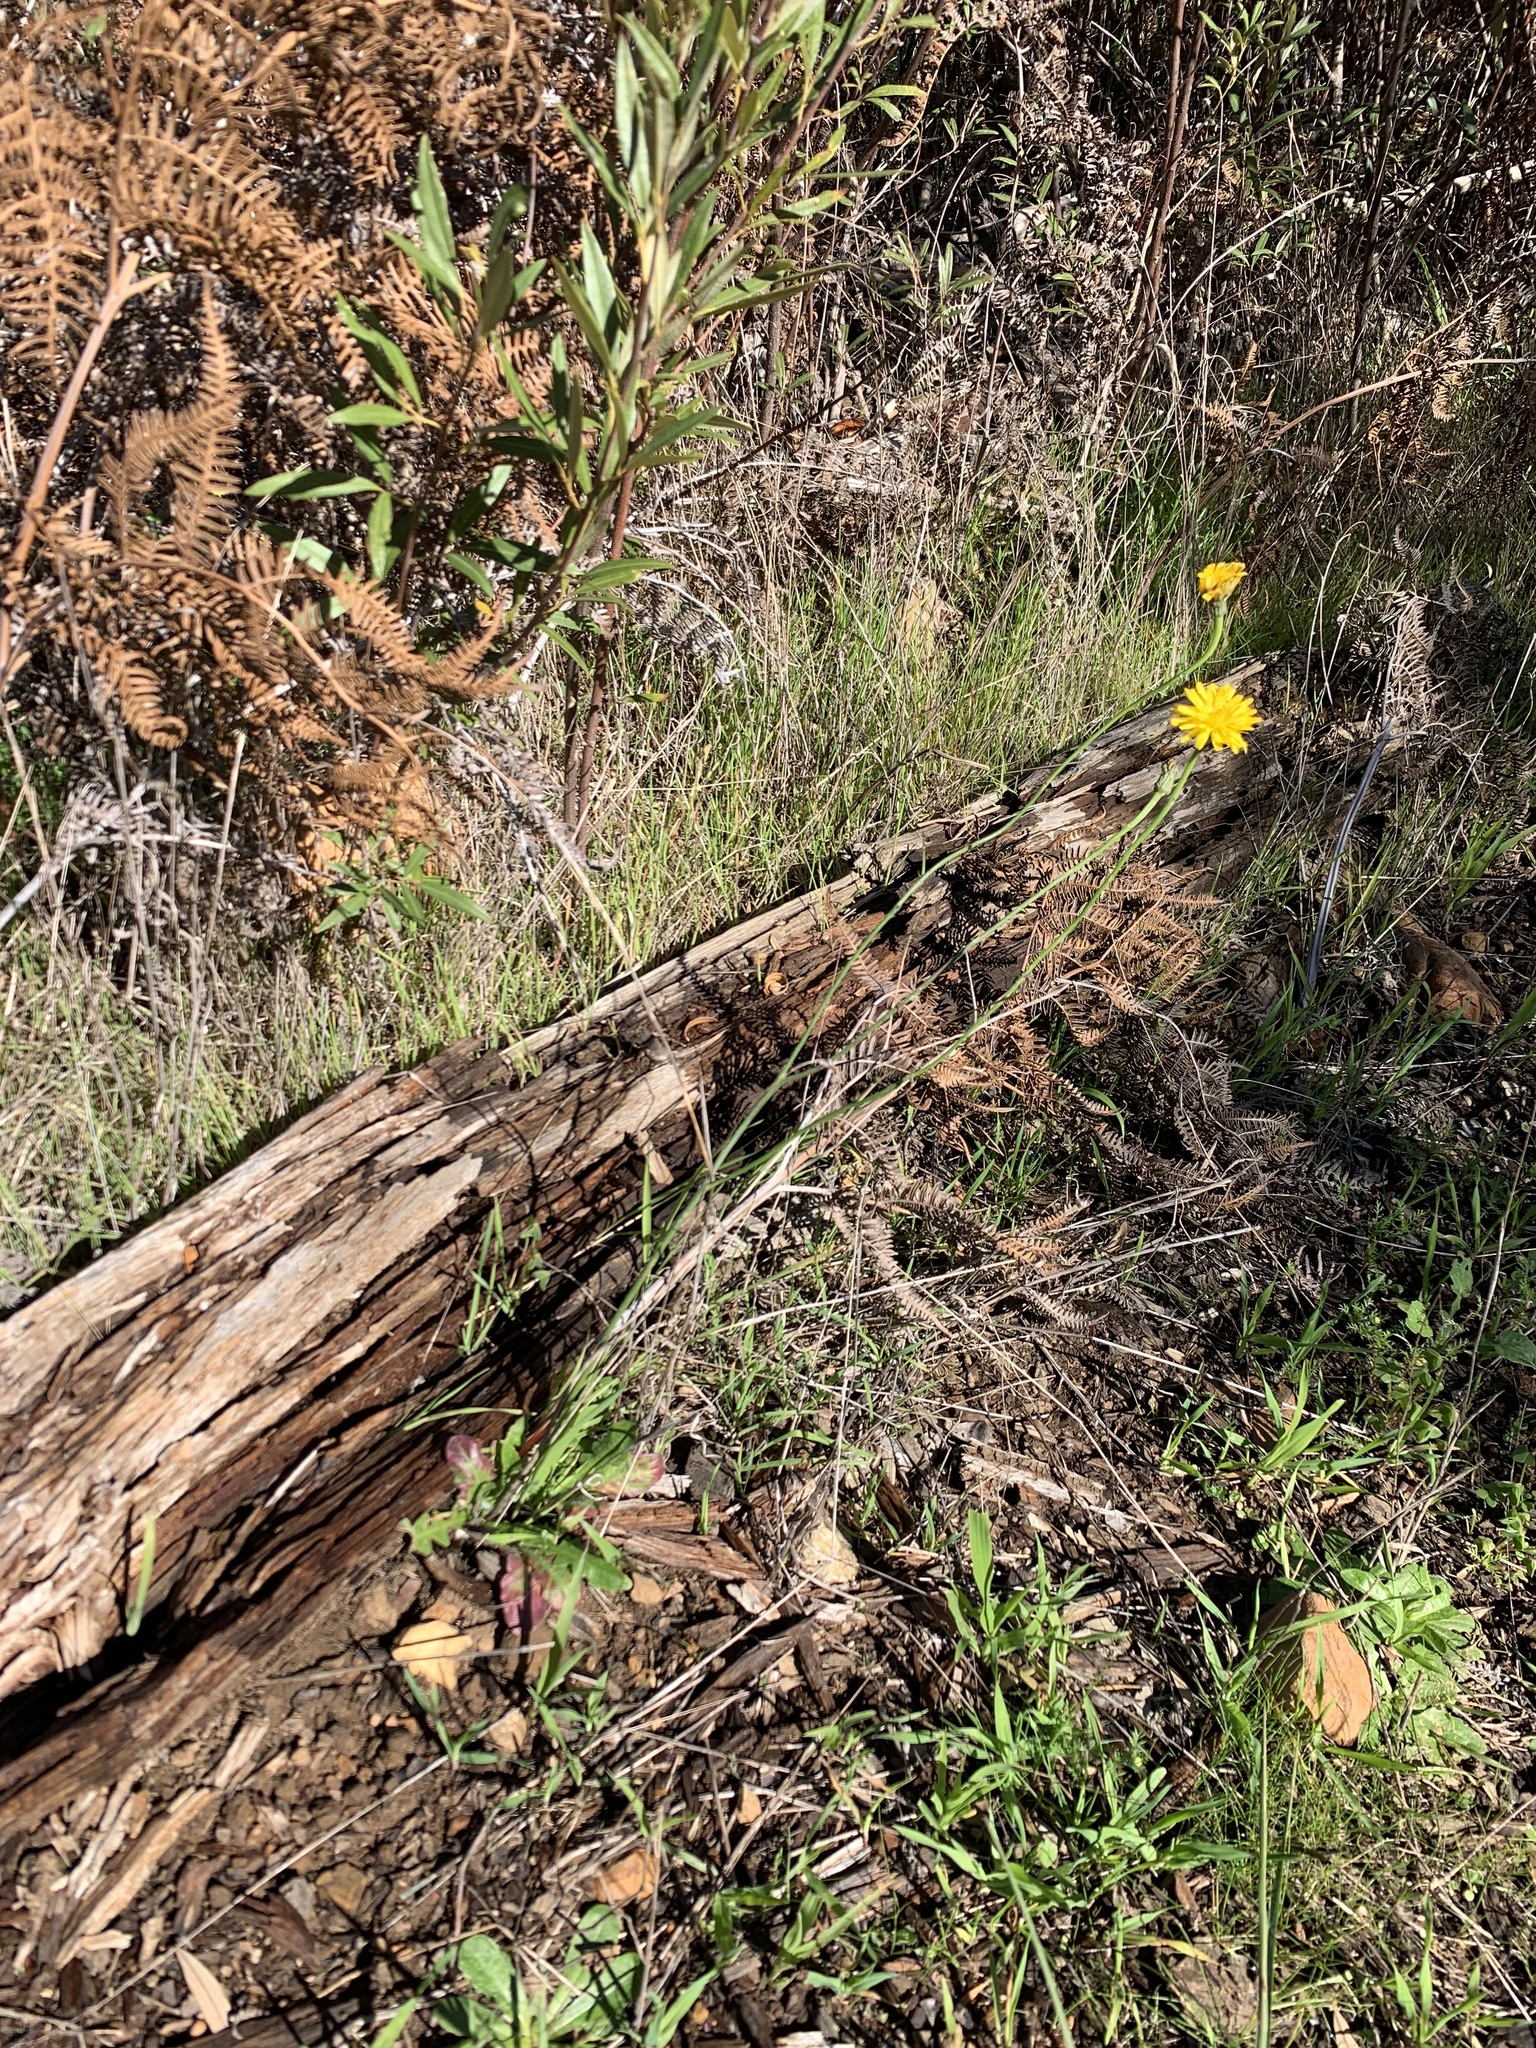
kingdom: Plantae
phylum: Tracheophyta
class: Magnoliopsida
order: Asterales
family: Asteraceae
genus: Hypochaeris
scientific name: Hypochaeris radicata
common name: Flatweed
